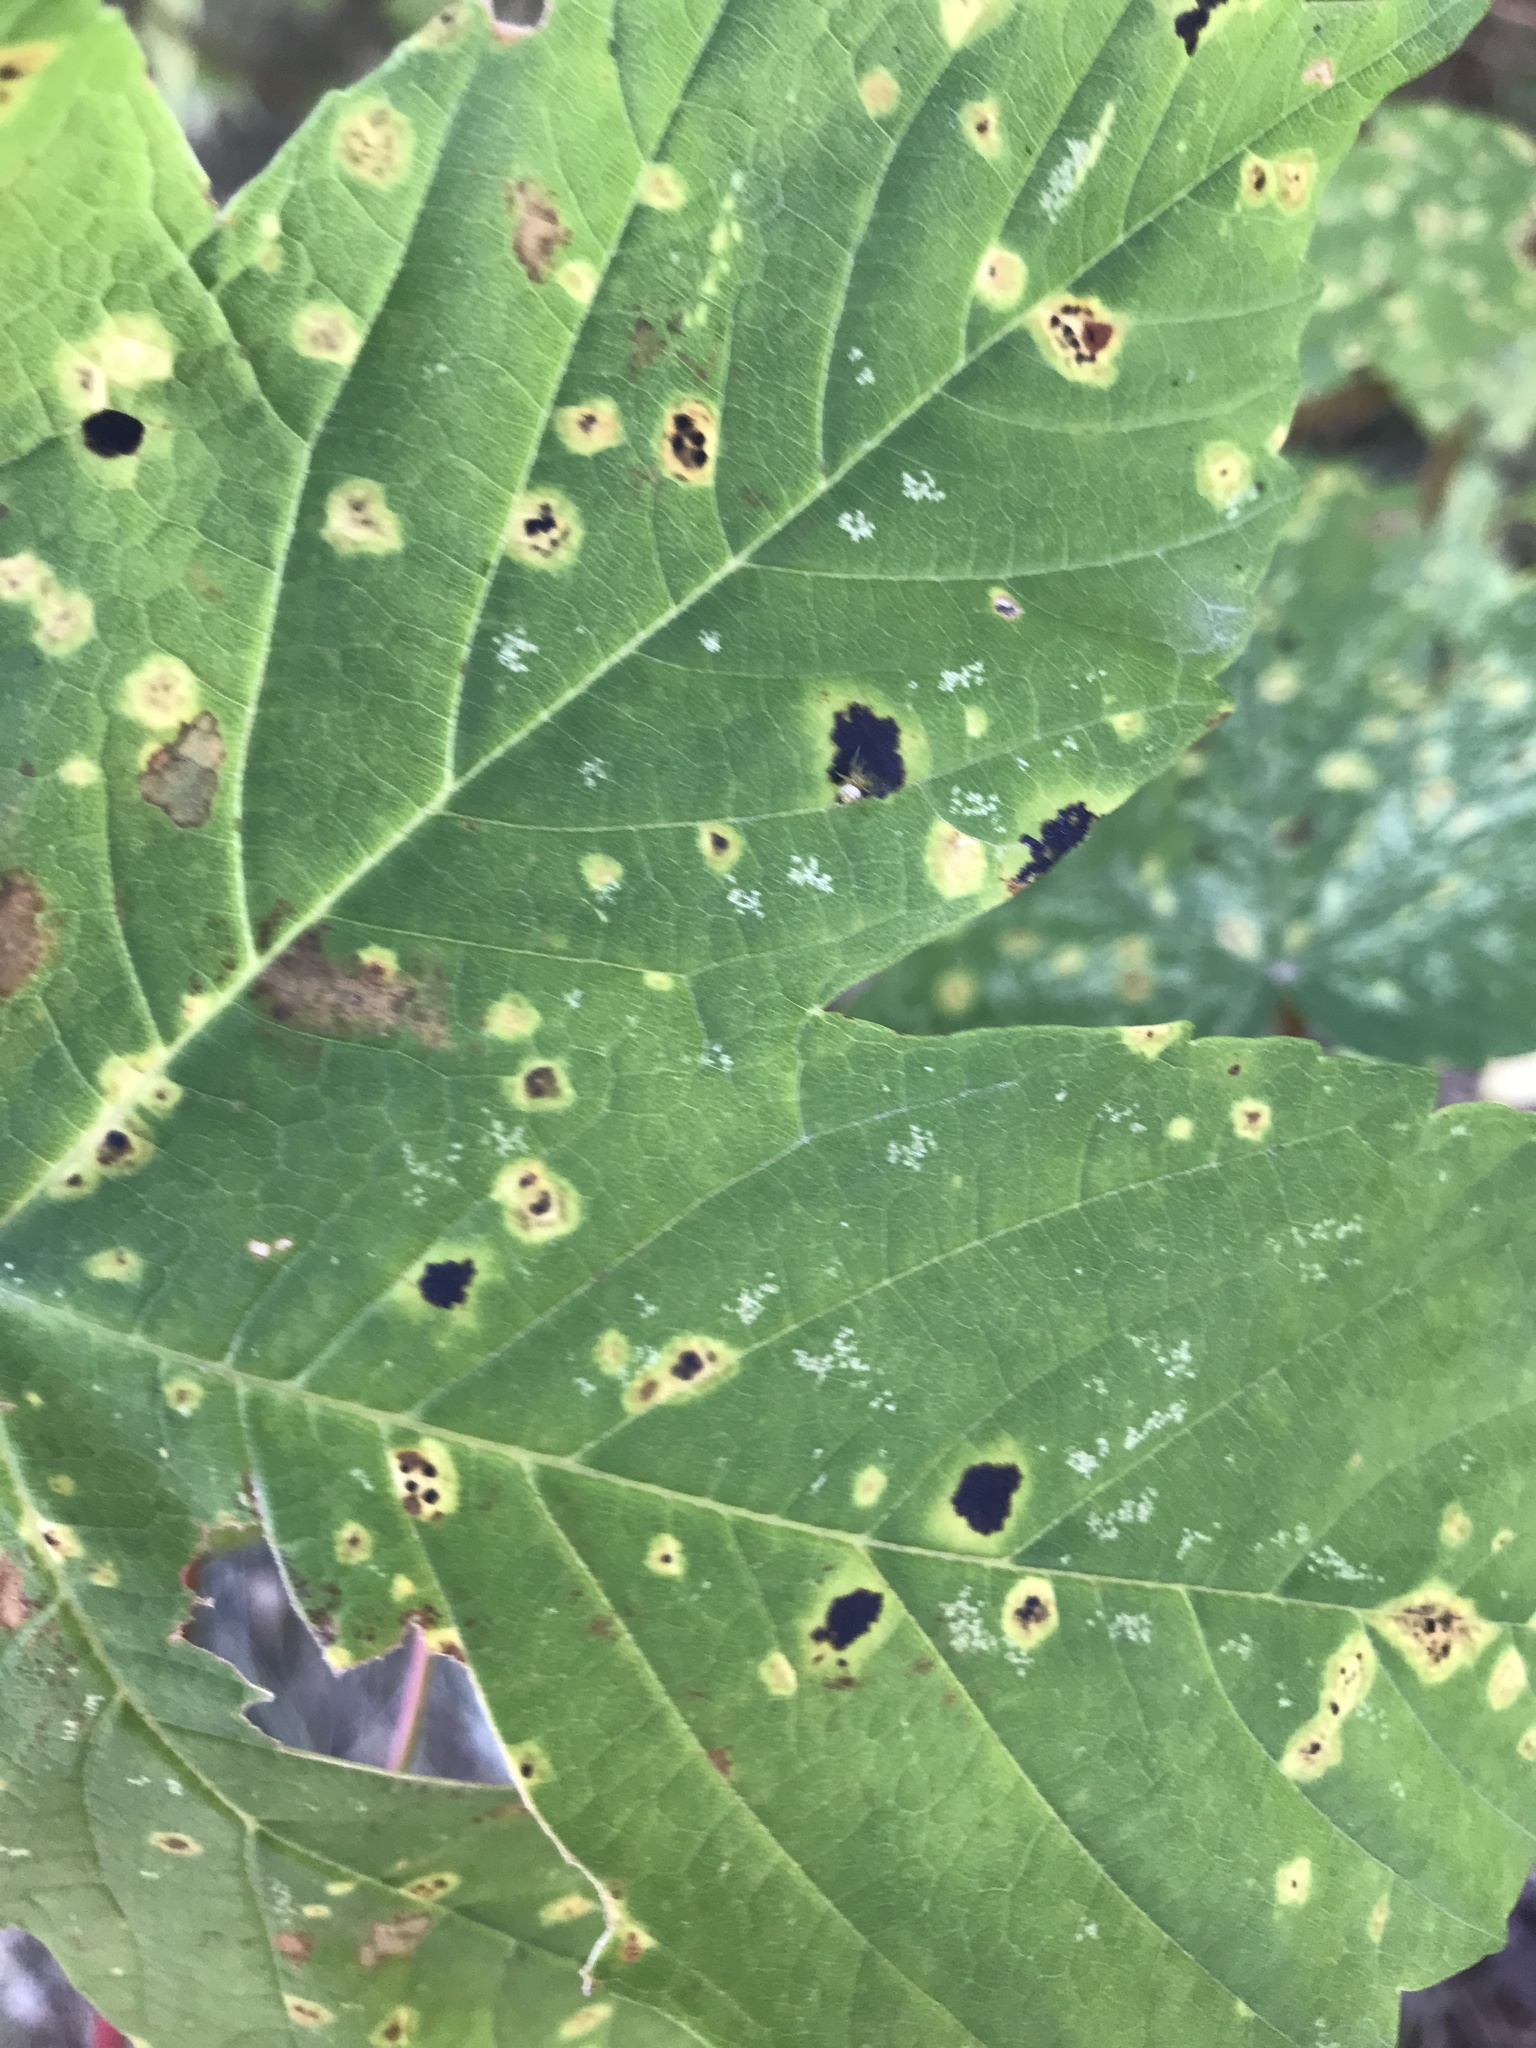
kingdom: Fungi
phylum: Ascomycota
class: Leotiomycetes
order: Rhytismatales
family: Rhytismataceae
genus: Rhytisma
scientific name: Rhytisma acerinum
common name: European tar spot
